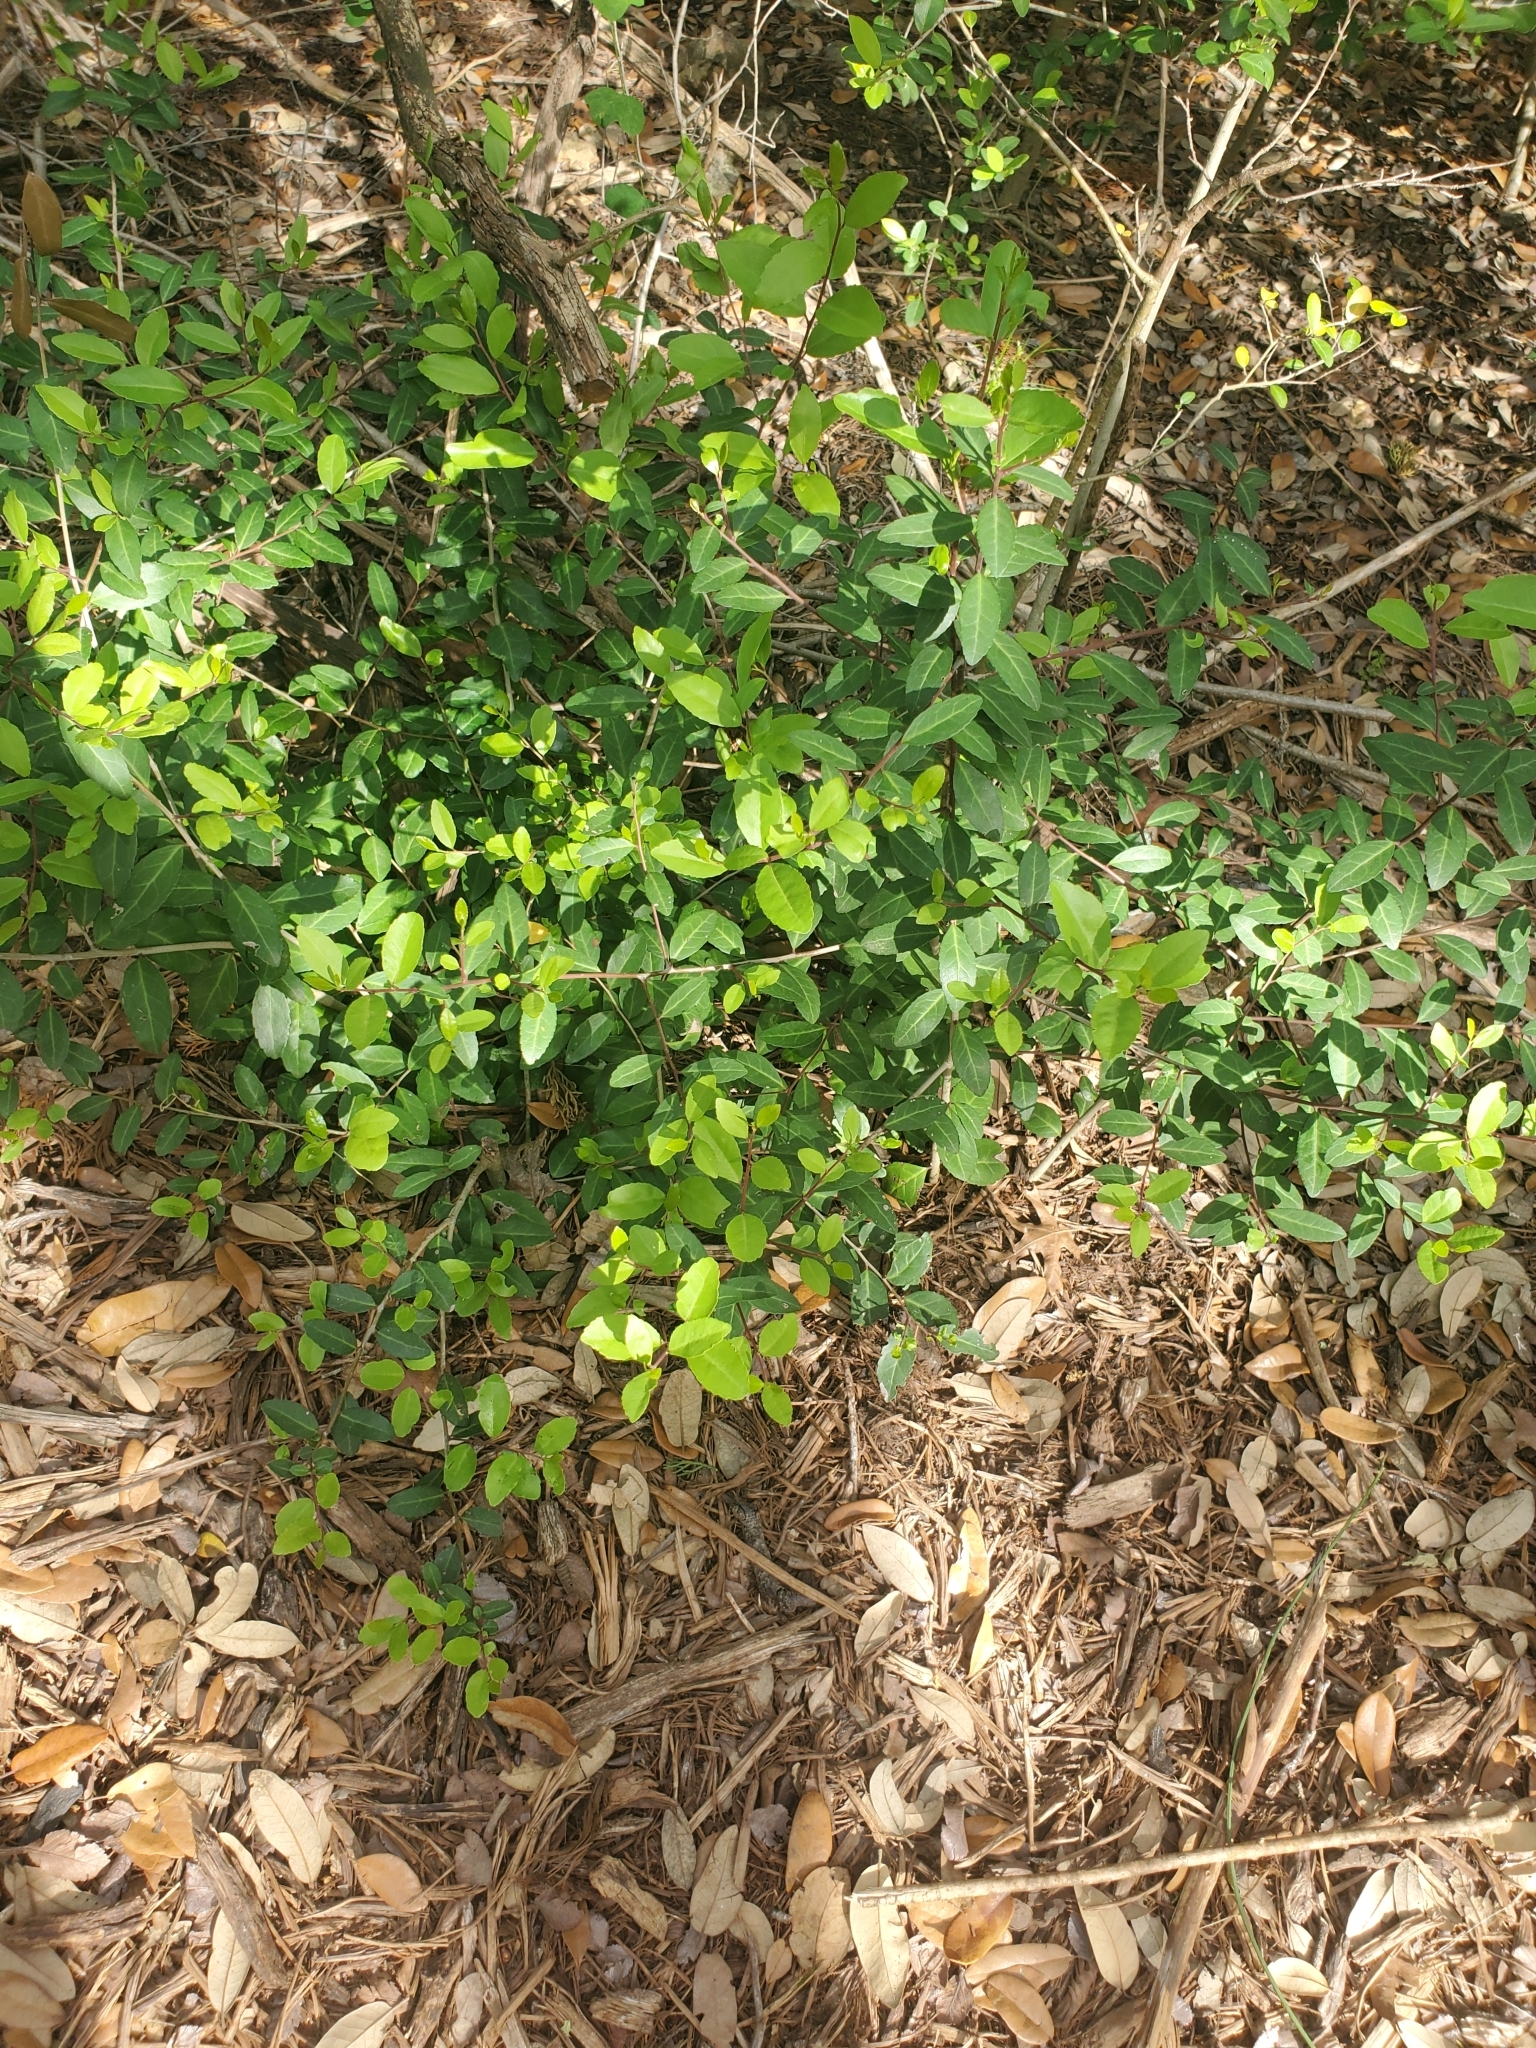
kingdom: Plantae
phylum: Tracheophyta
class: Magnoliopsida
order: Aquifoliales
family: Aquifoliaceae
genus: Ilex
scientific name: Ilex vomitoria
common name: Yaupon holly
